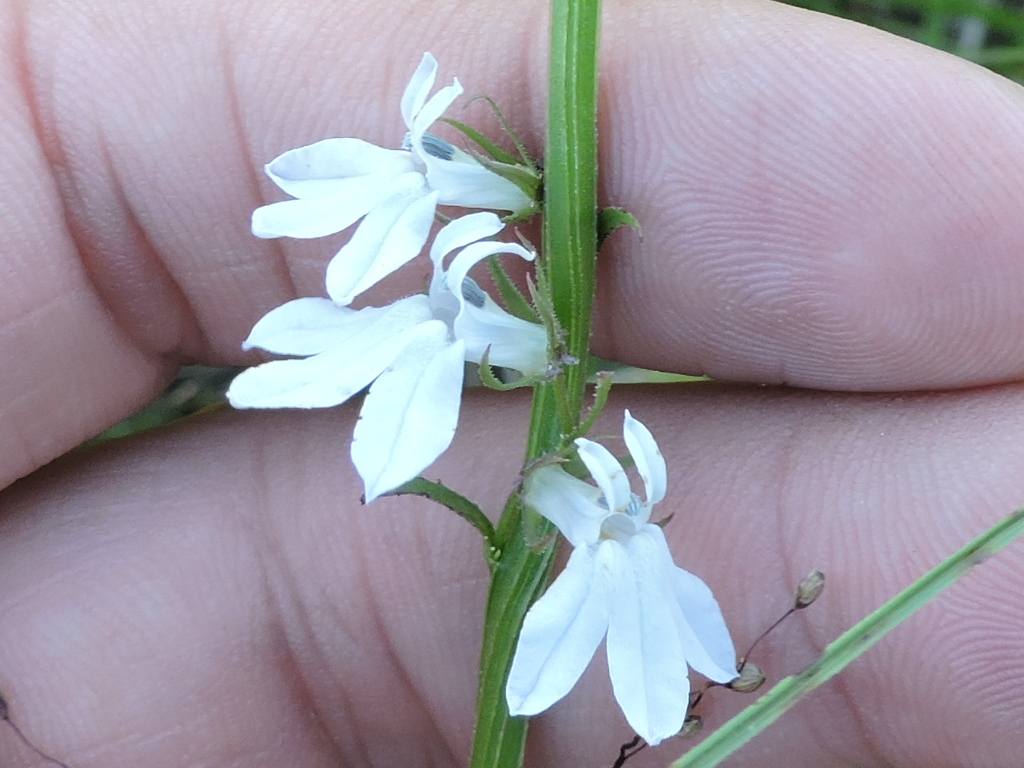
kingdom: Plantae
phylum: Tracheophyta
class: Magnoliopsida
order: Asterales
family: Campanulaceae
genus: Lobelia
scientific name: Lobelia appendiculata
